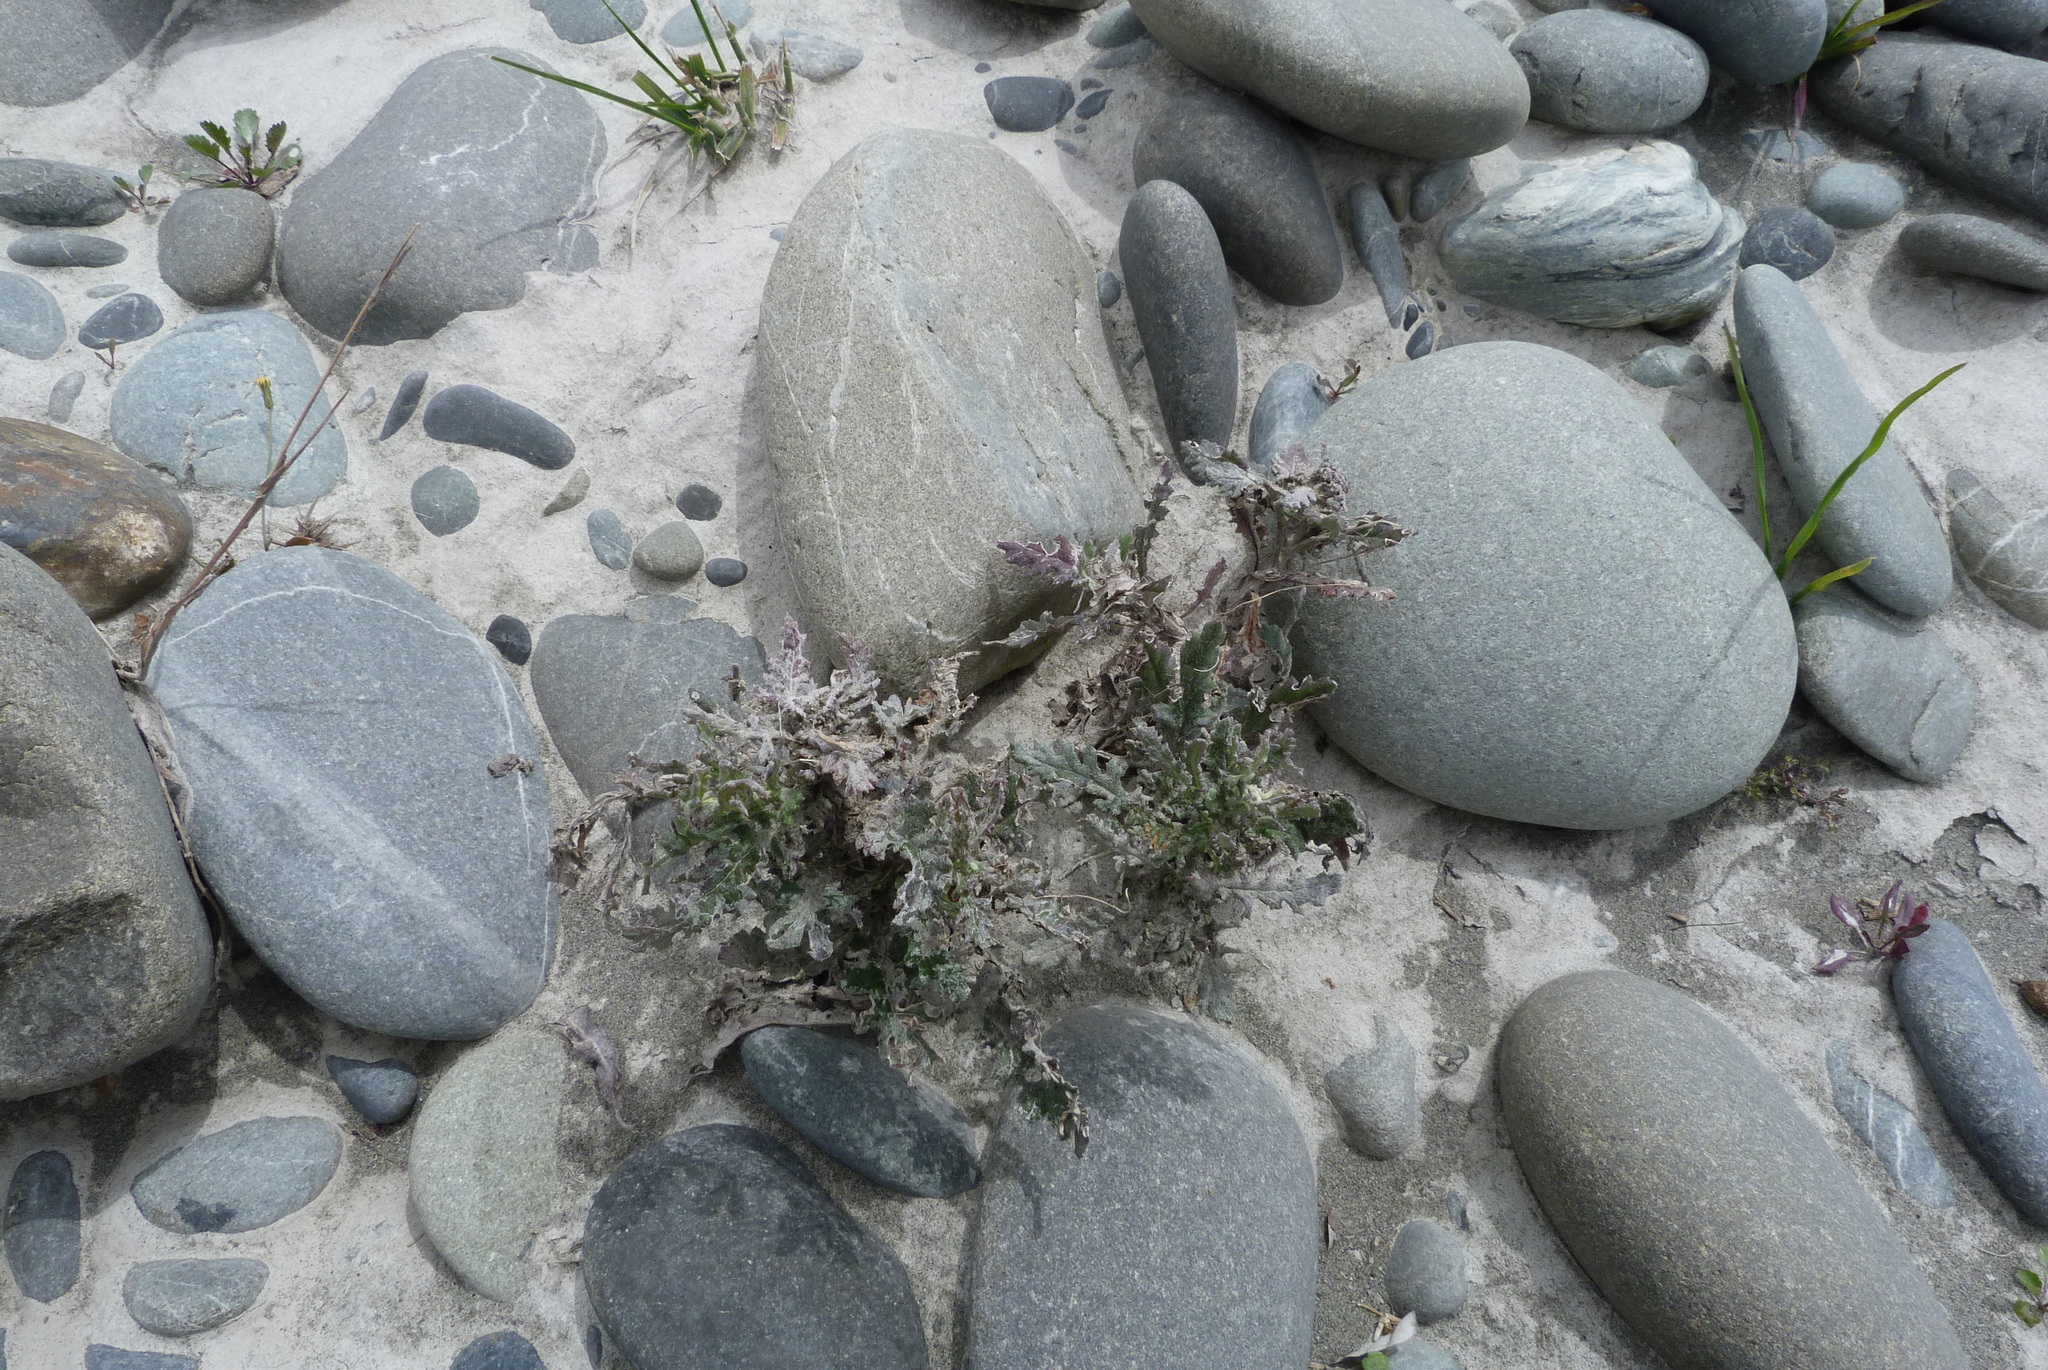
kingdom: Plantae
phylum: Tracheophyta
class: Magnoliopsida
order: Asterales
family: Asteraceae
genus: Senecio
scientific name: Senecio glomeratus
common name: Cutleaf burnweed
